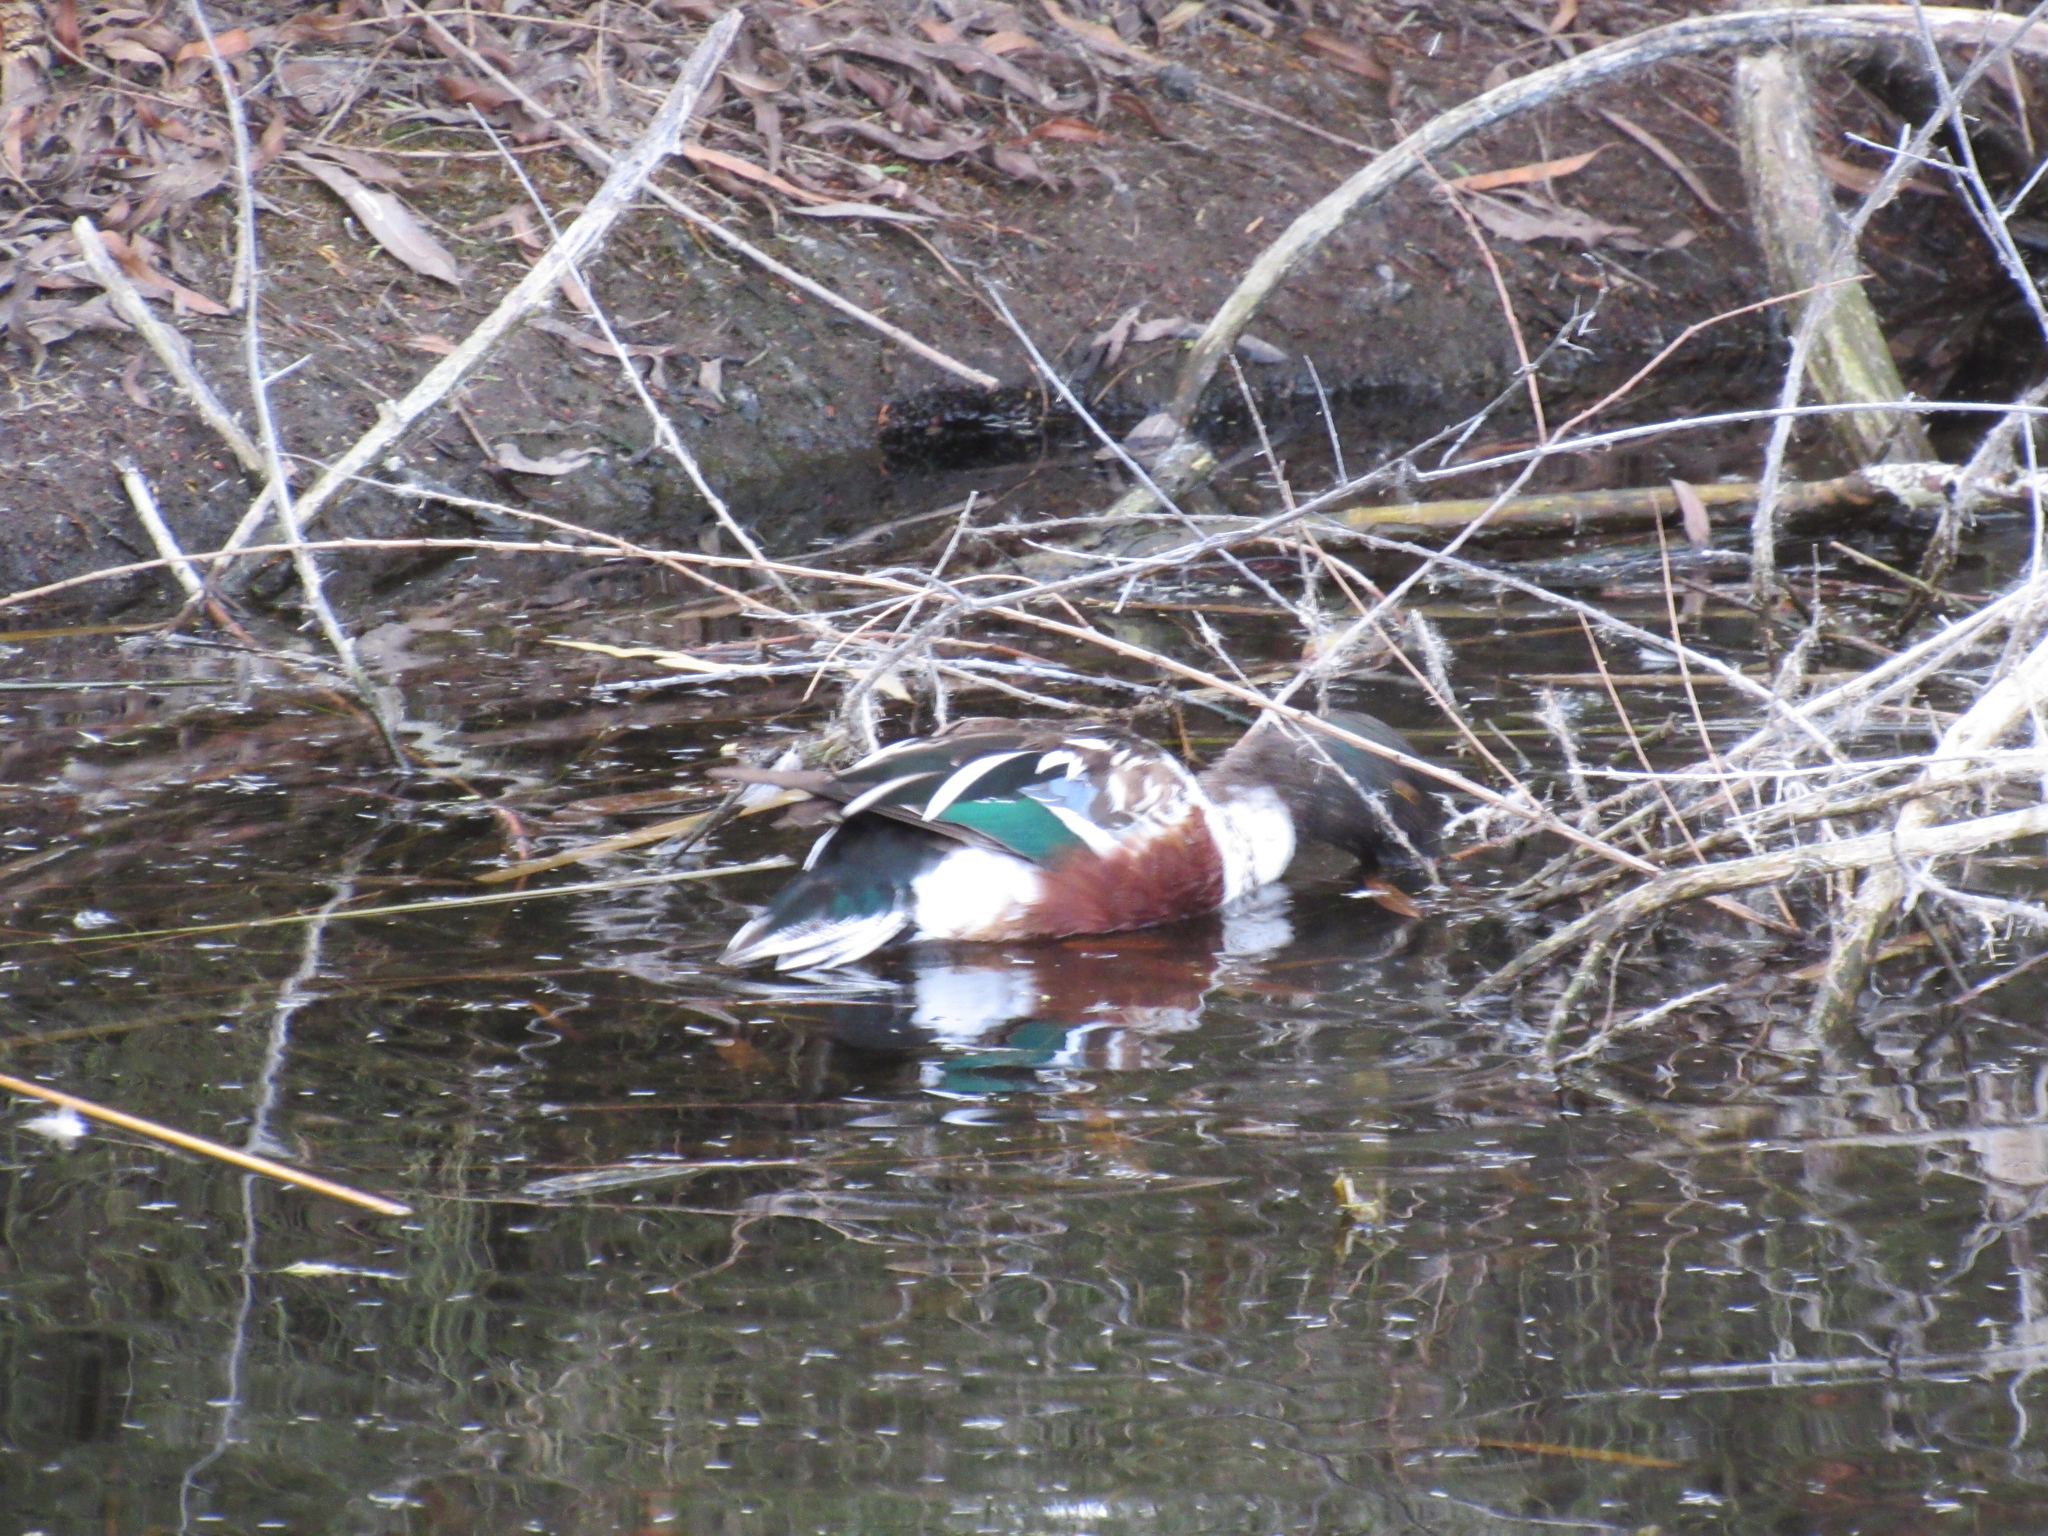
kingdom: Animalia
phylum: Chordata
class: Aves
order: Anseriformes
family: Anatidae
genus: Spatula
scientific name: Spatula clypeata
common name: Northern shoveler
